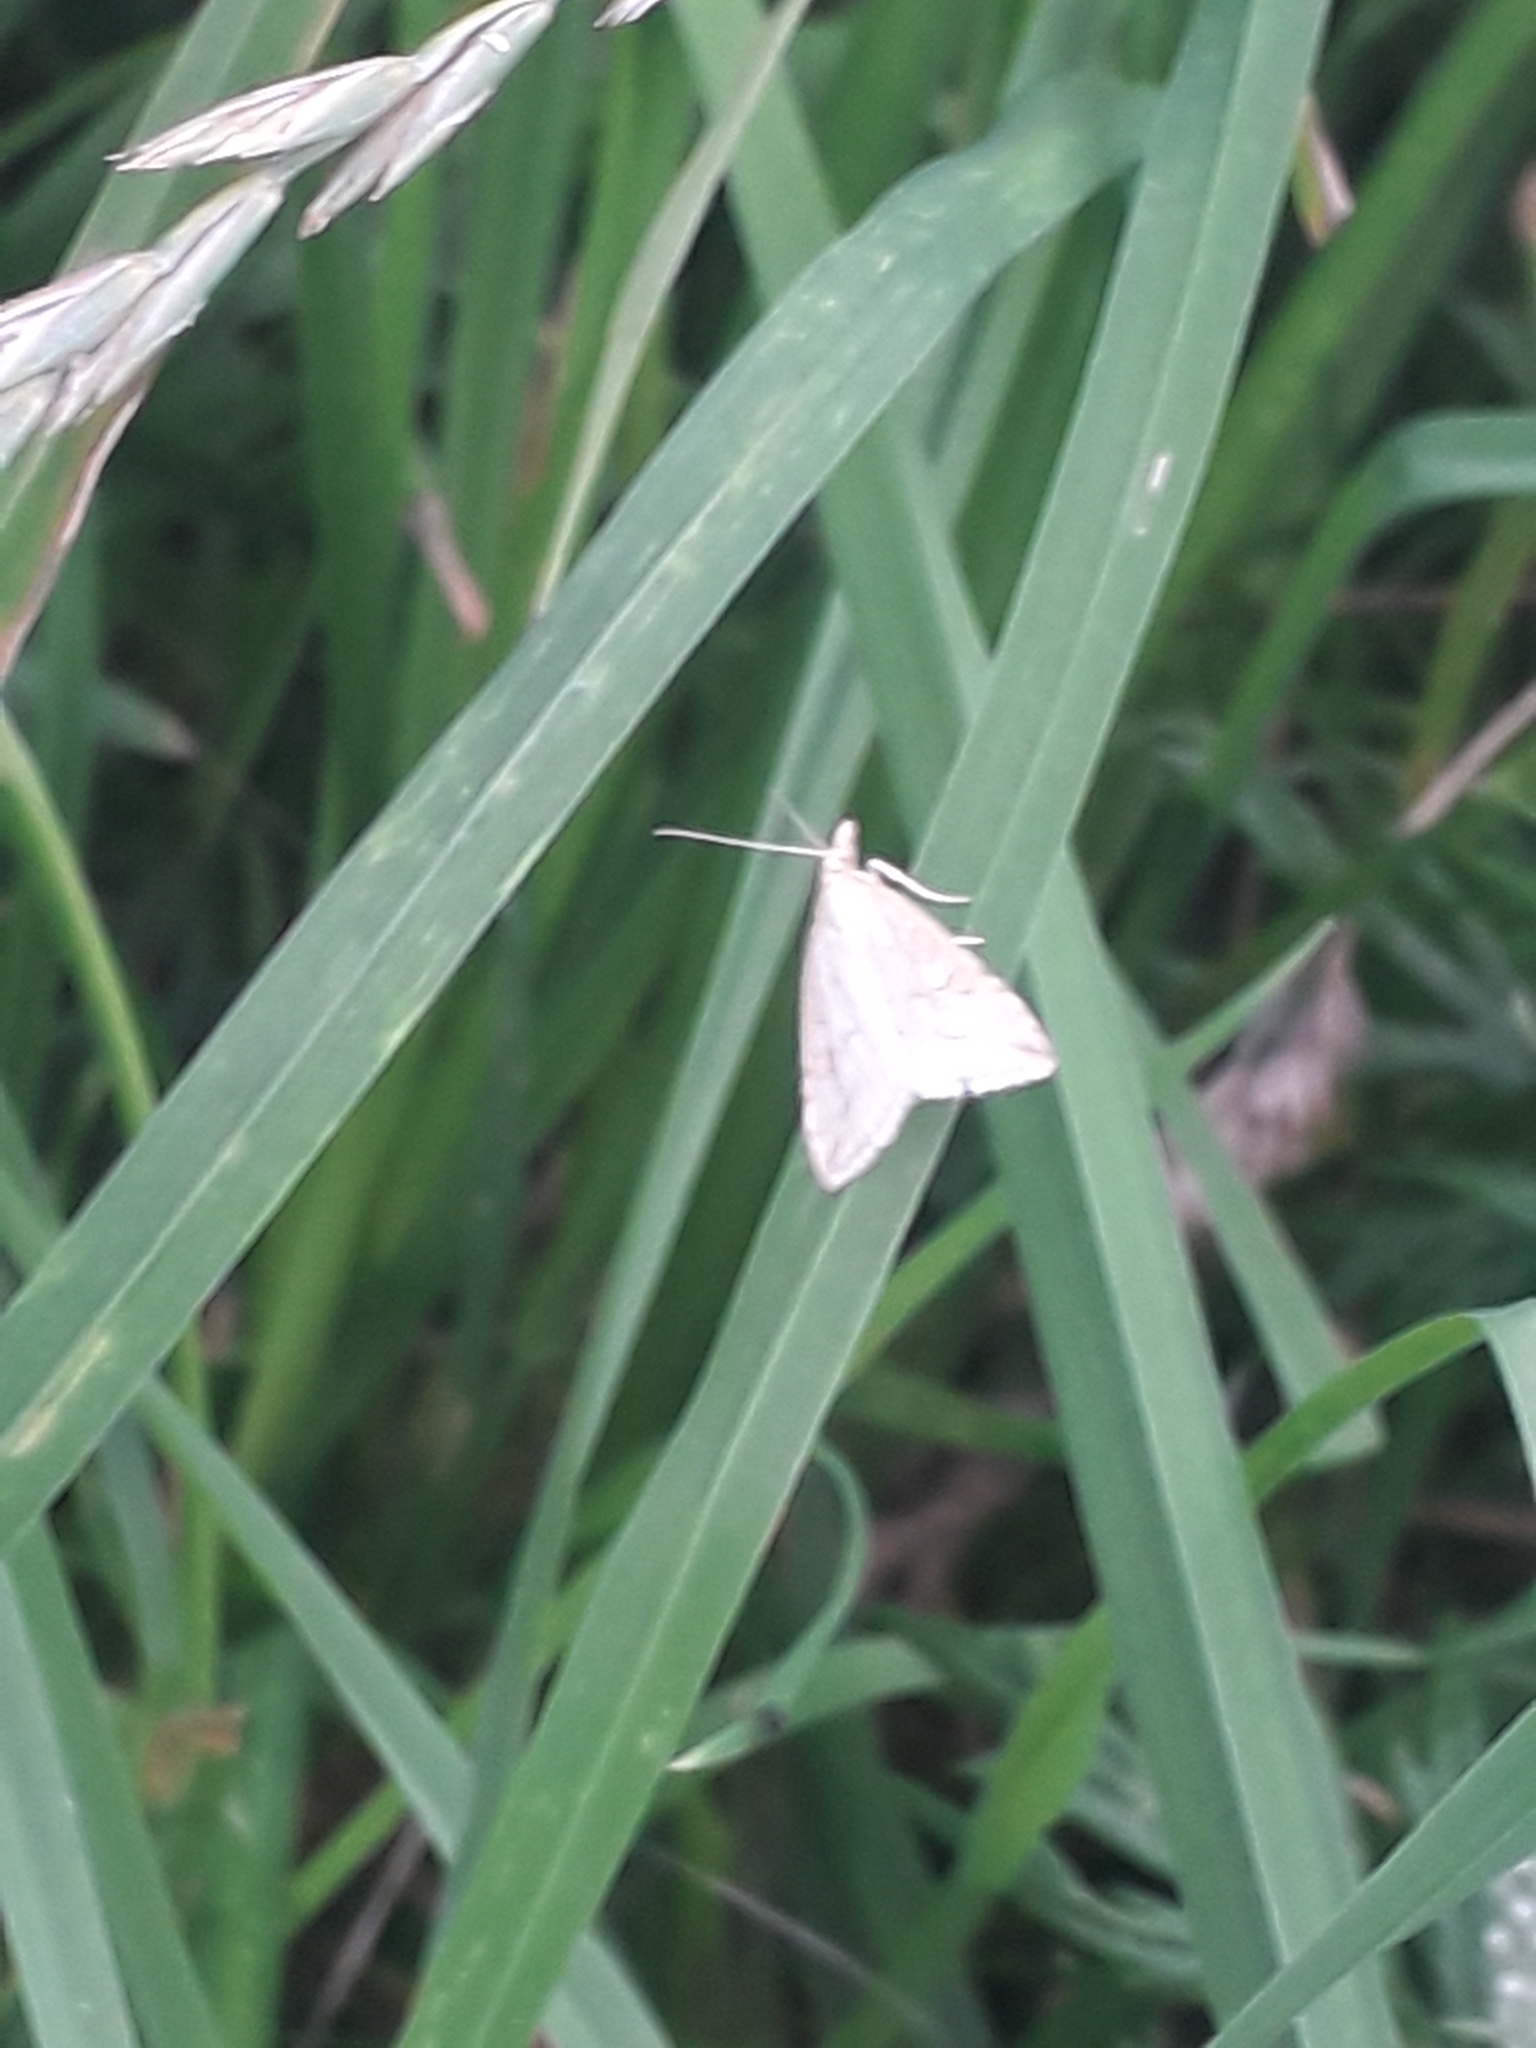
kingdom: Animalia
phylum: Arthropoda
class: Insecta
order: Lepidoptera
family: Crambidae
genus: Udea
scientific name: Udea lutealis
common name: Pale straw pearl
